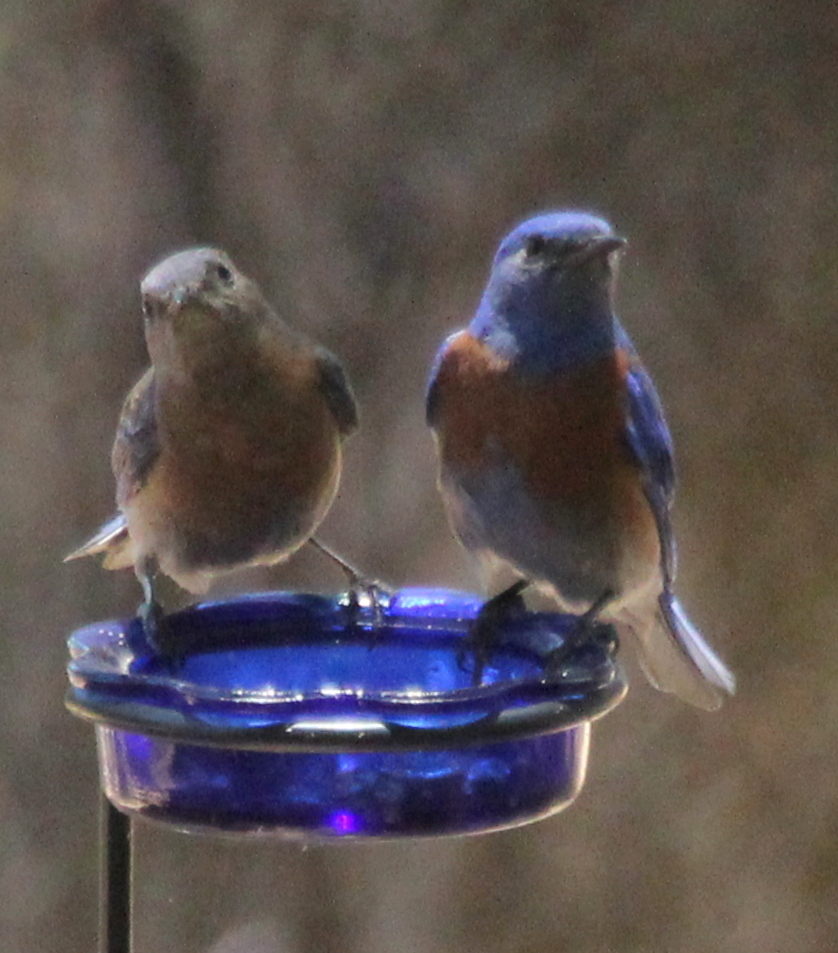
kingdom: Animalia
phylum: Chordata
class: Aves
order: Passeriformes
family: Turdidae
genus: Sialia
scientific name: Sialia mexicana
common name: Western bluebird
